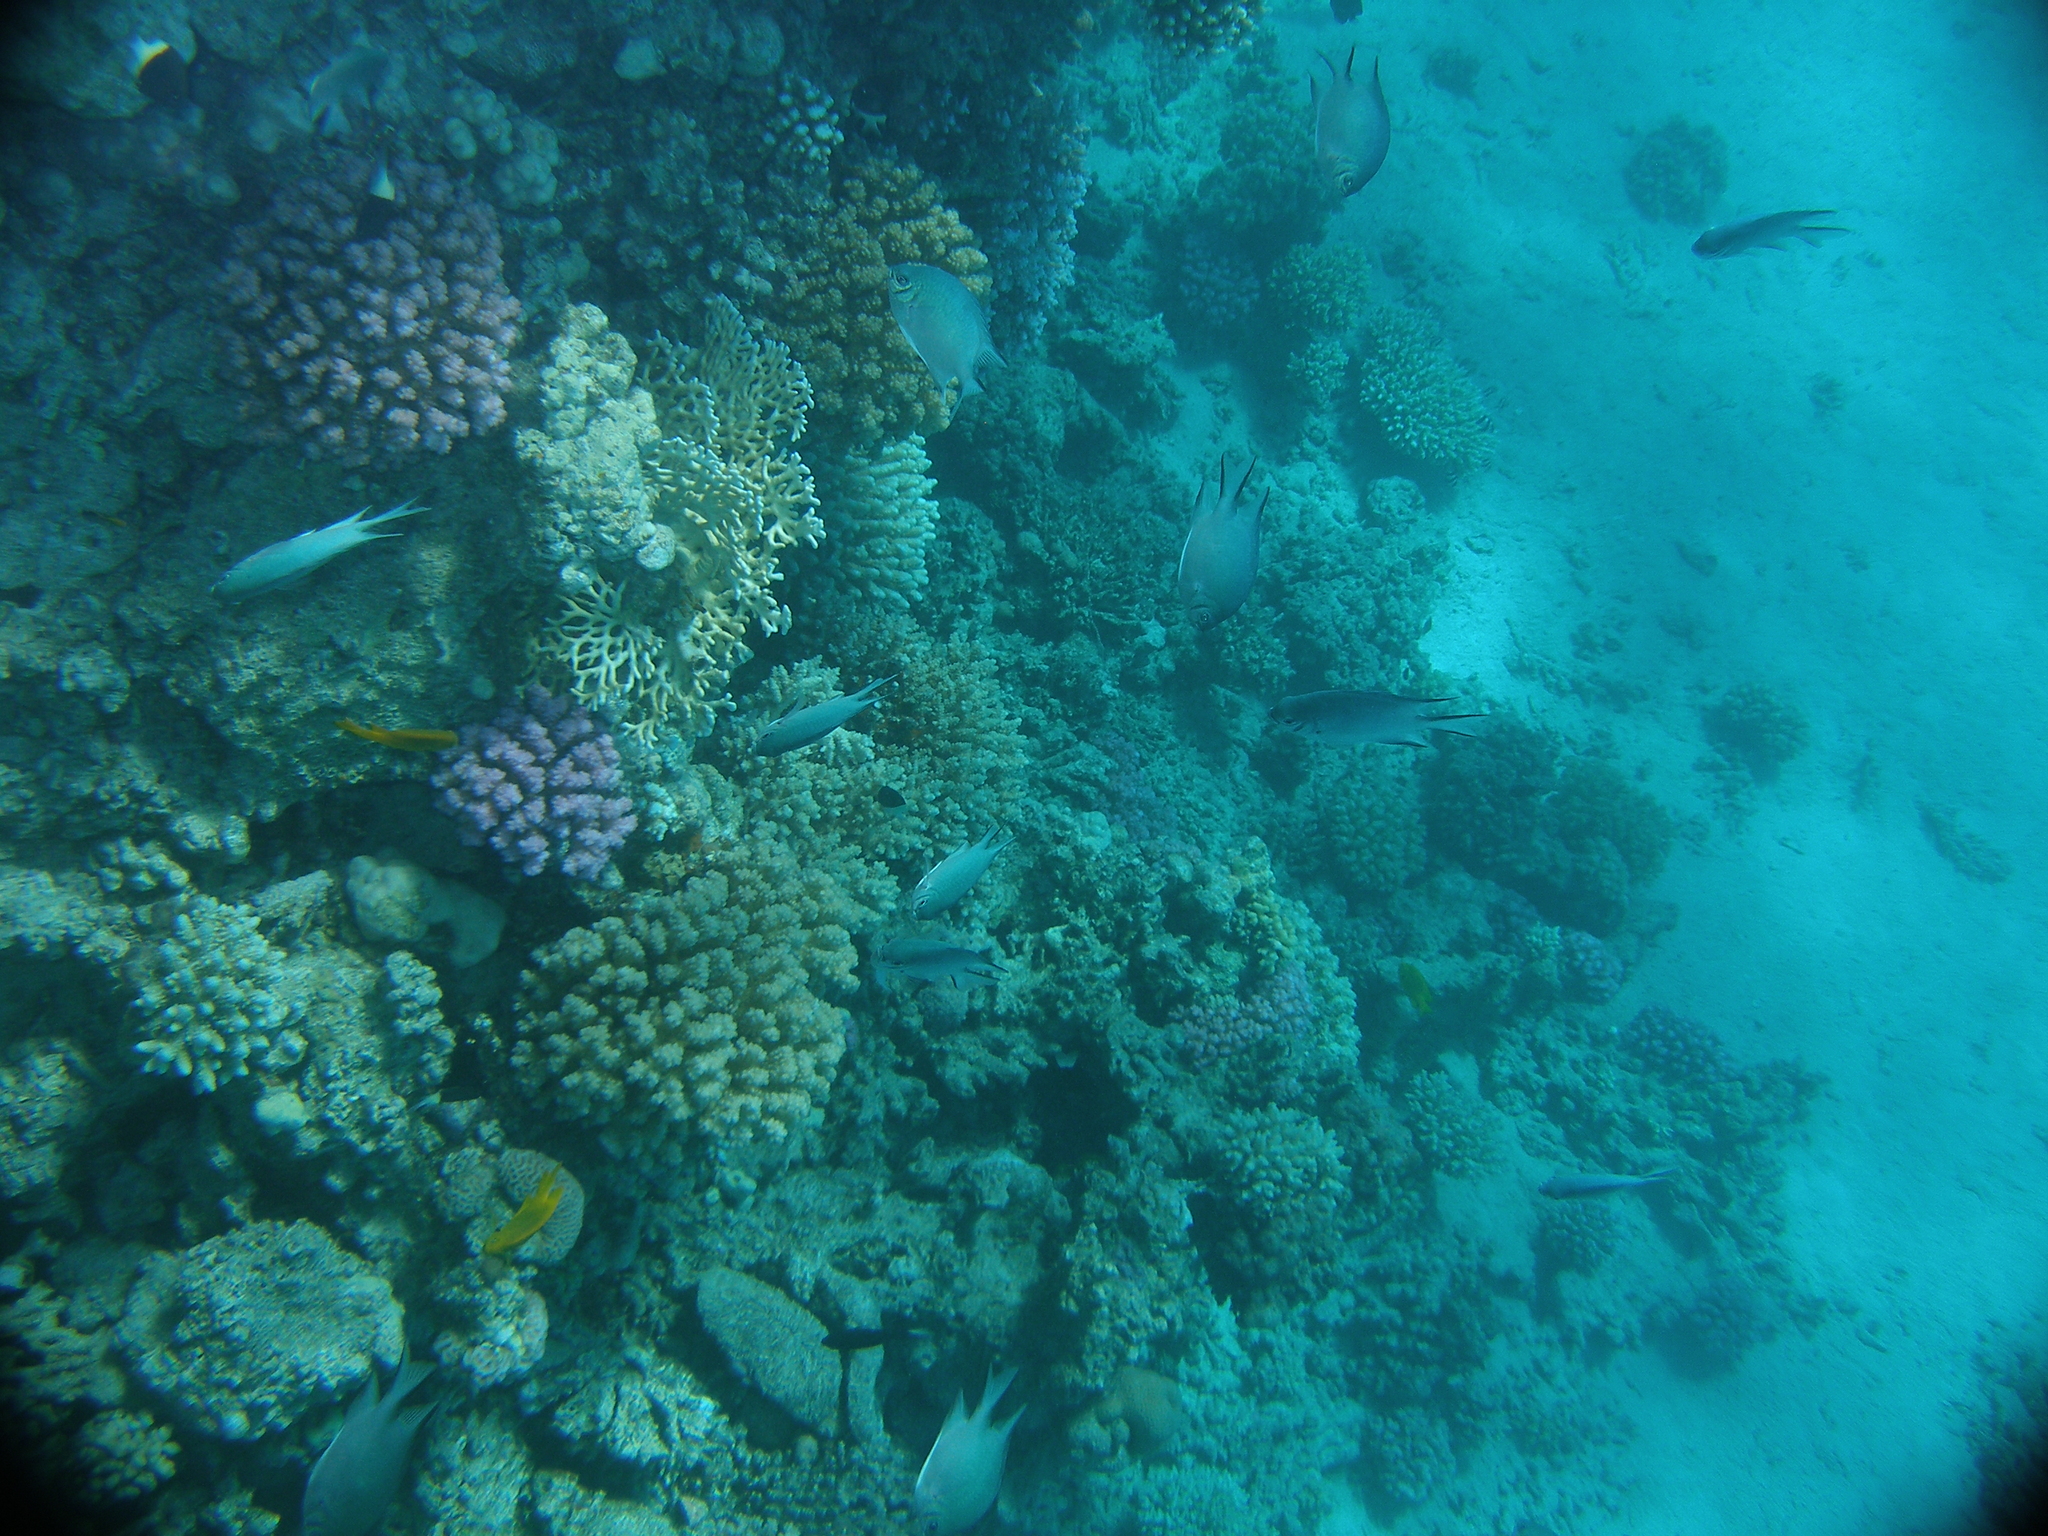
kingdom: Animalia
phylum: Chordata
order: Perciformes
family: Pomacentridae
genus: Amblyglyphidodon
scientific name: Amblyglyphidodon indicus
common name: Maldives damselfish
